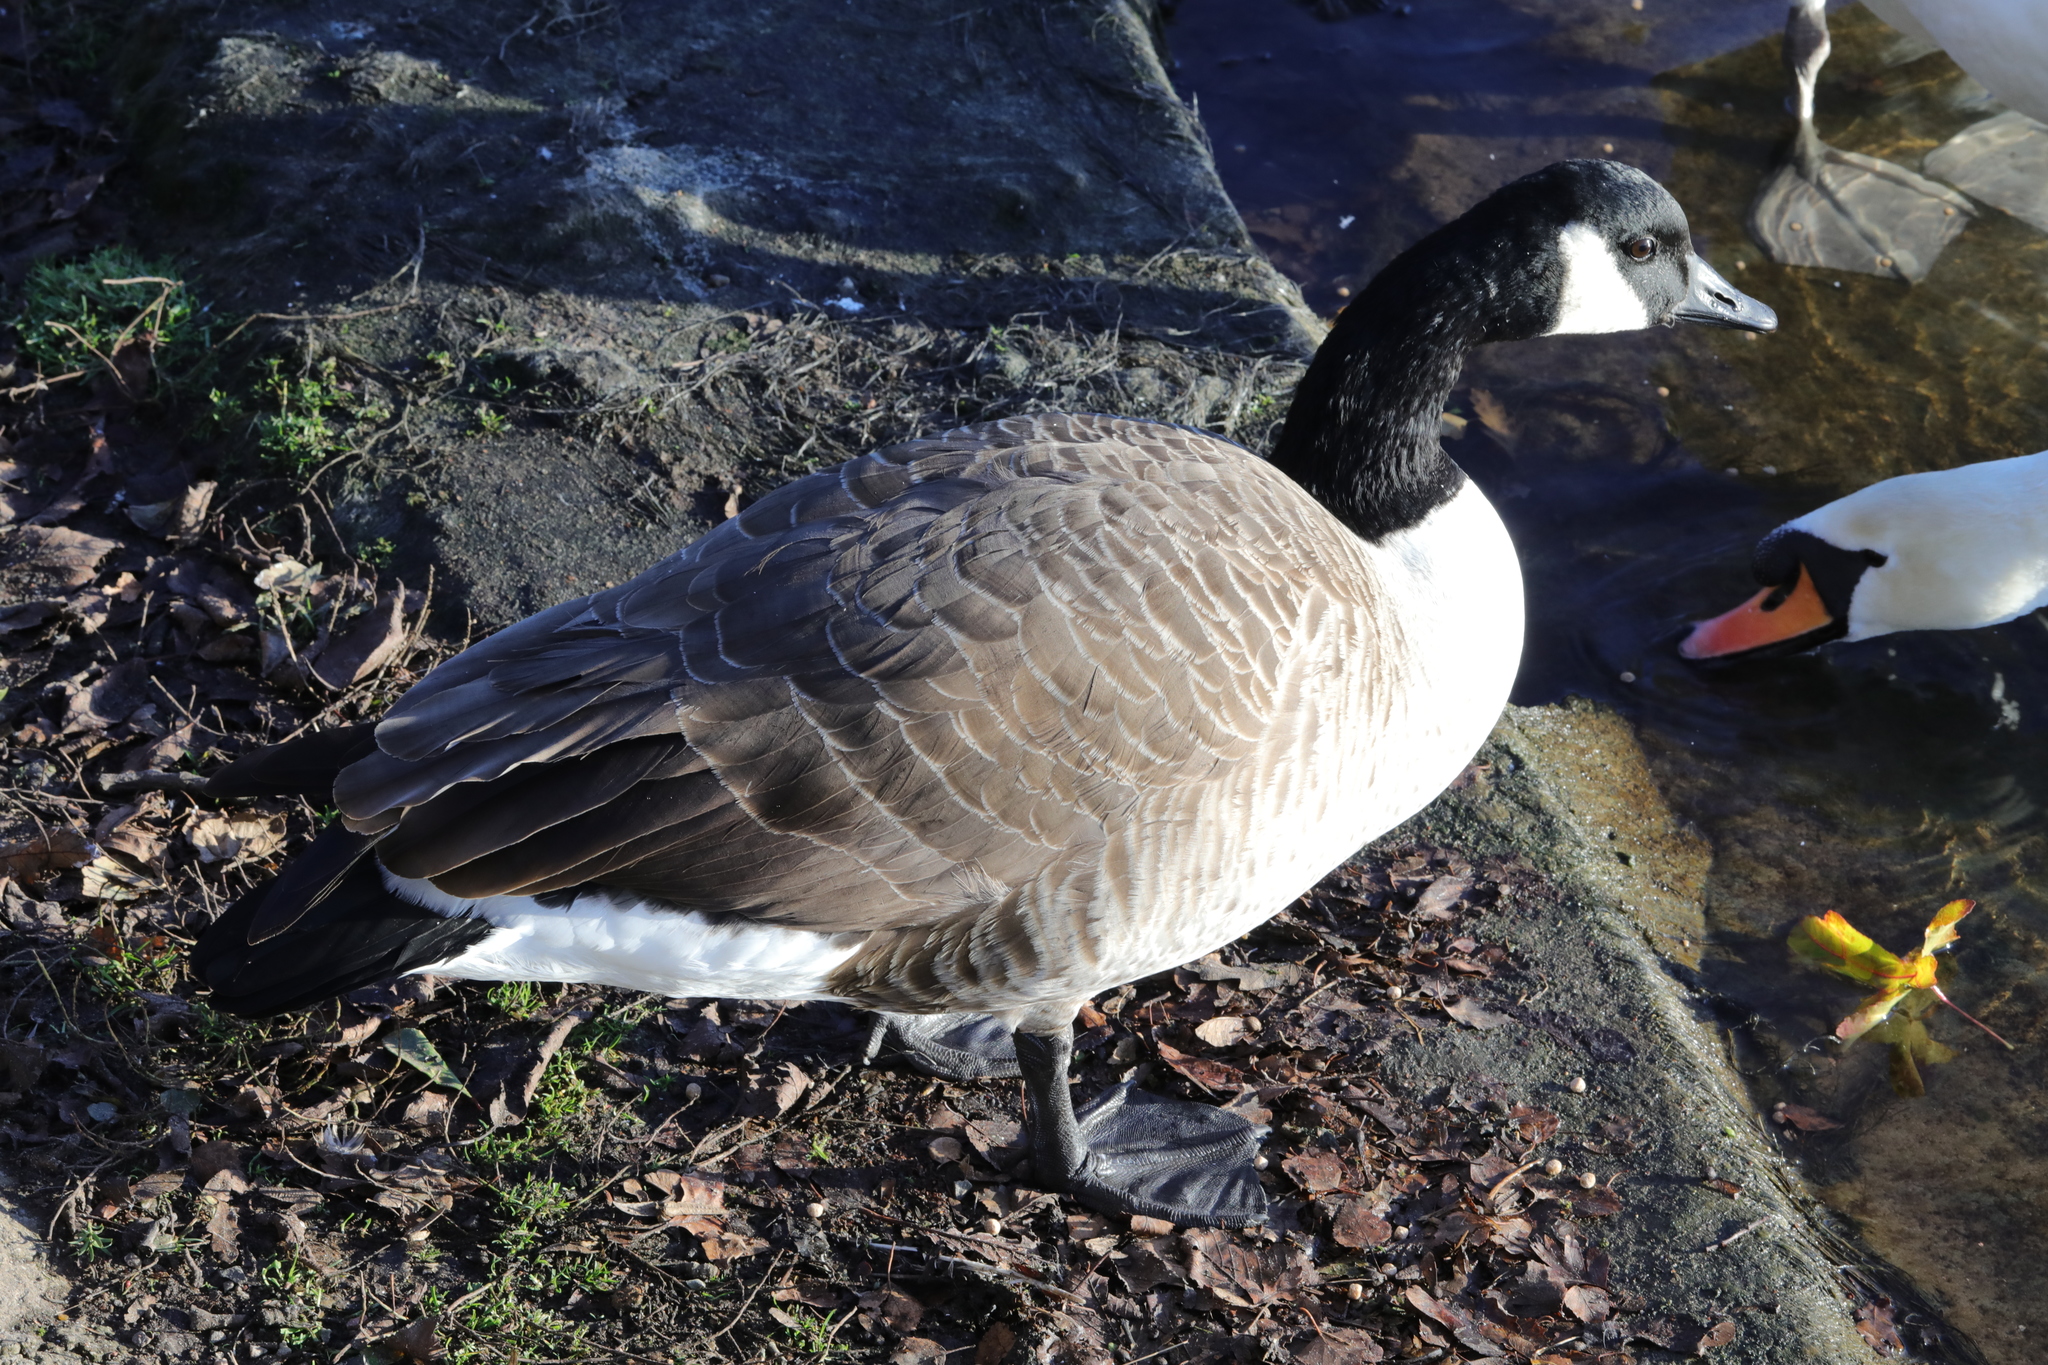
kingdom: Animalia
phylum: Chordata
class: Aves
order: Anseriformes
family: Anatidae
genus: Branta
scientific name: Branta canadensis
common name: Canada goose
